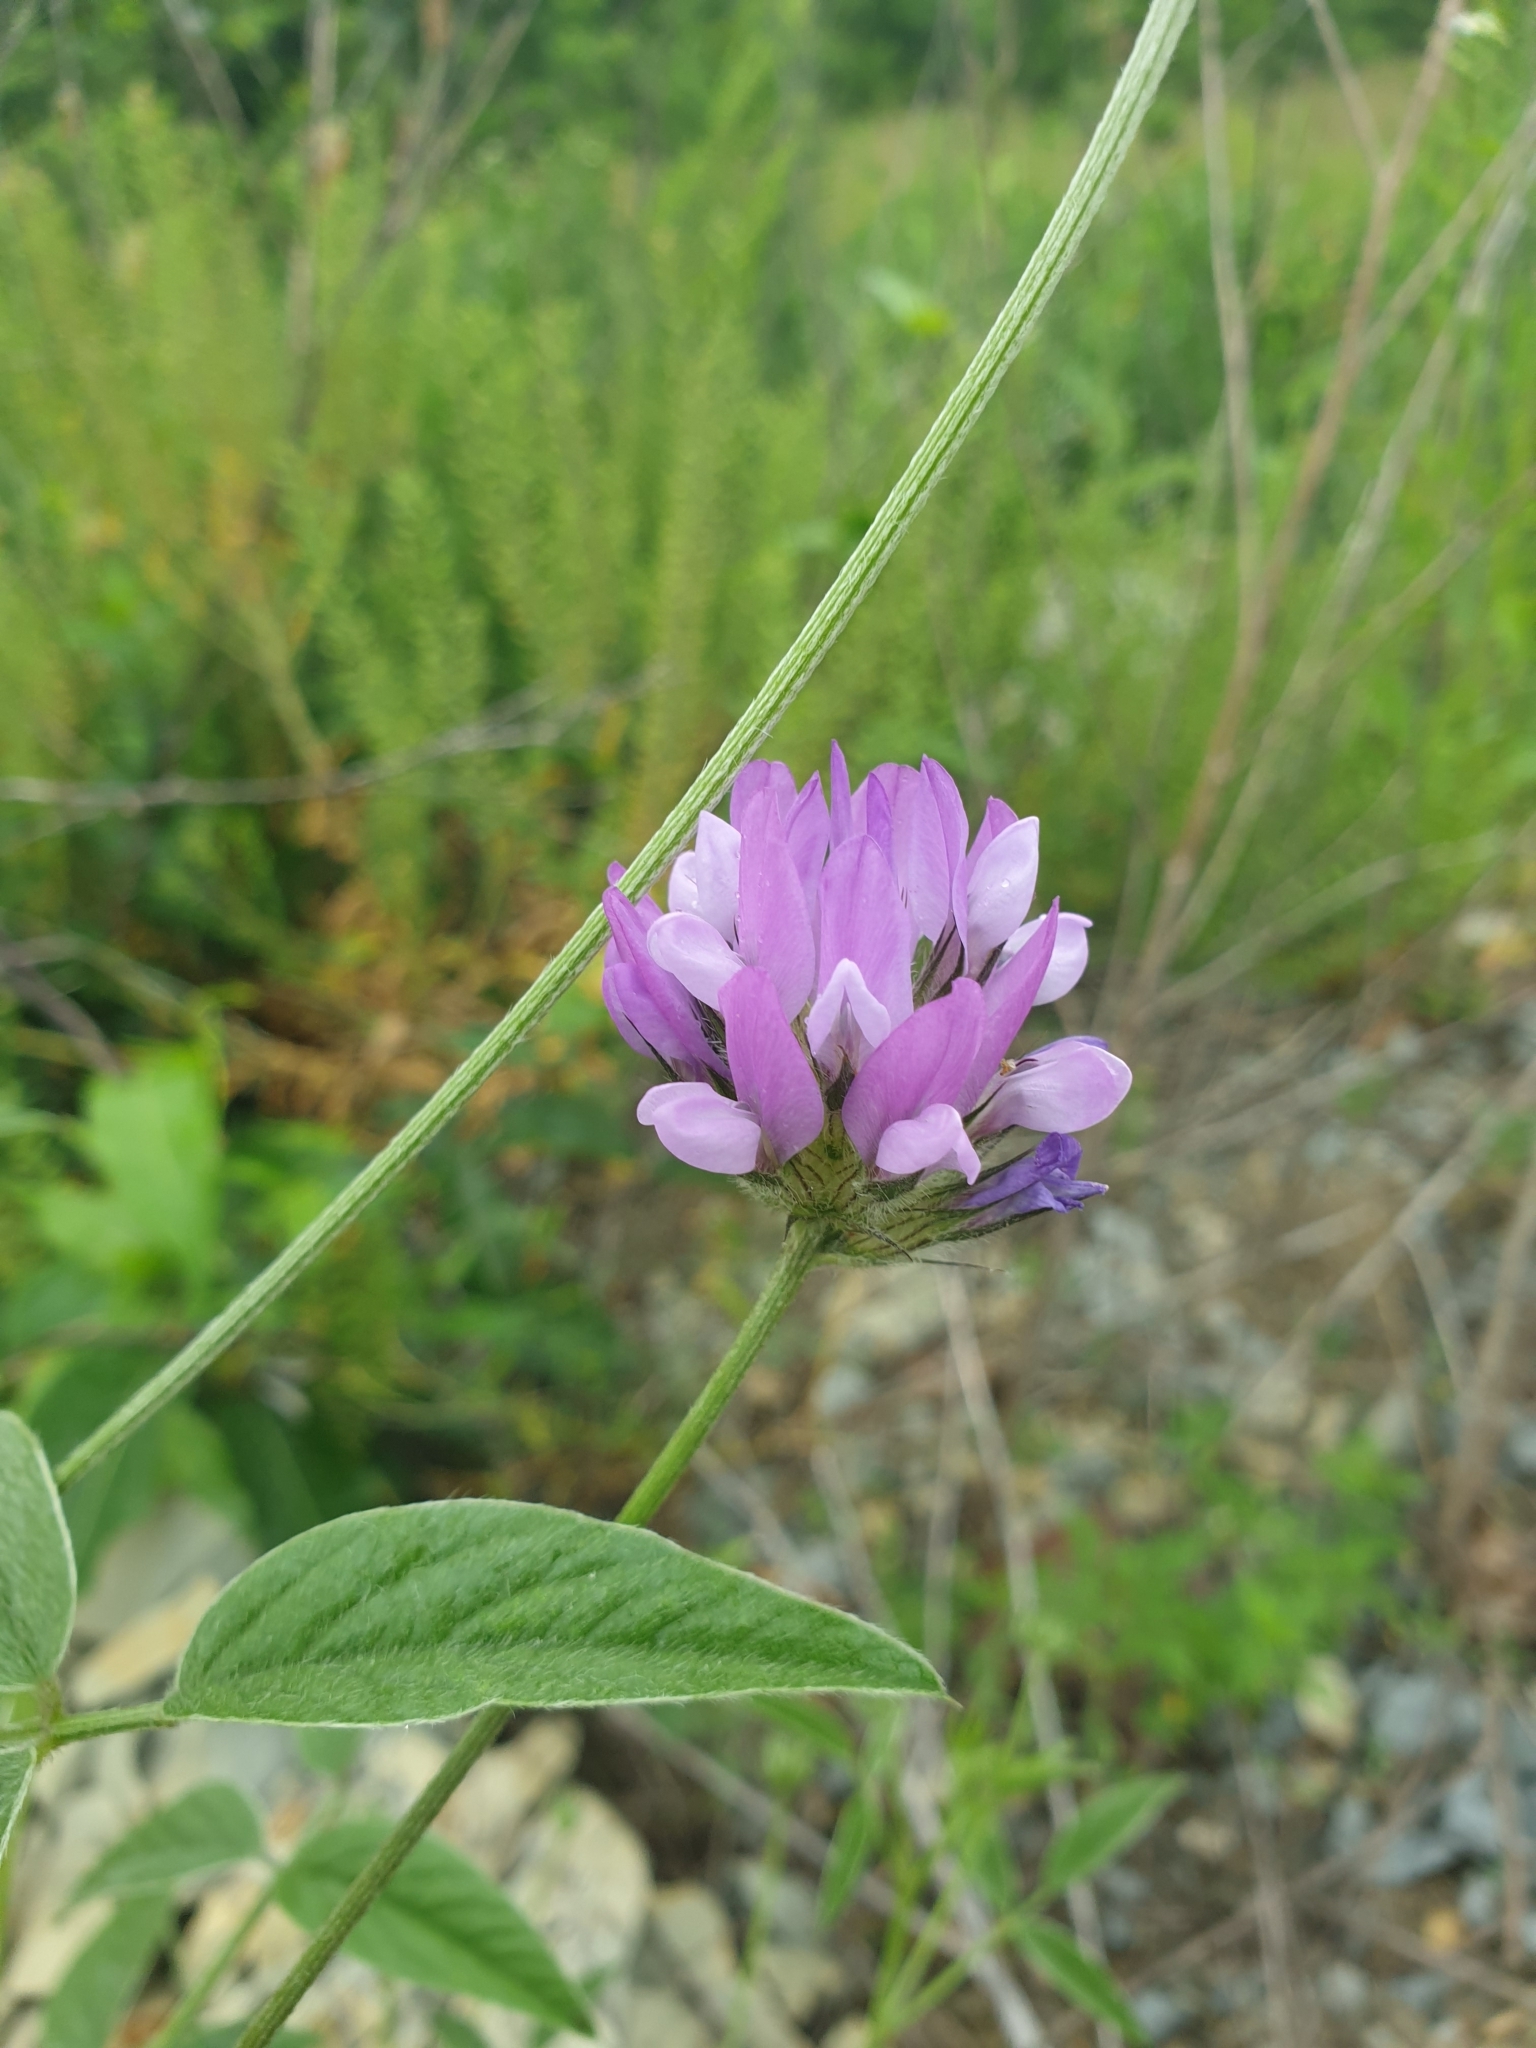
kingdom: Plantae
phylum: Tracheophyta
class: Magnoliopsida
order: Fabales
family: Fabaceae
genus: Bituminaria
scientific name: Bituminaria bituminosa
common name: Arabian pea
